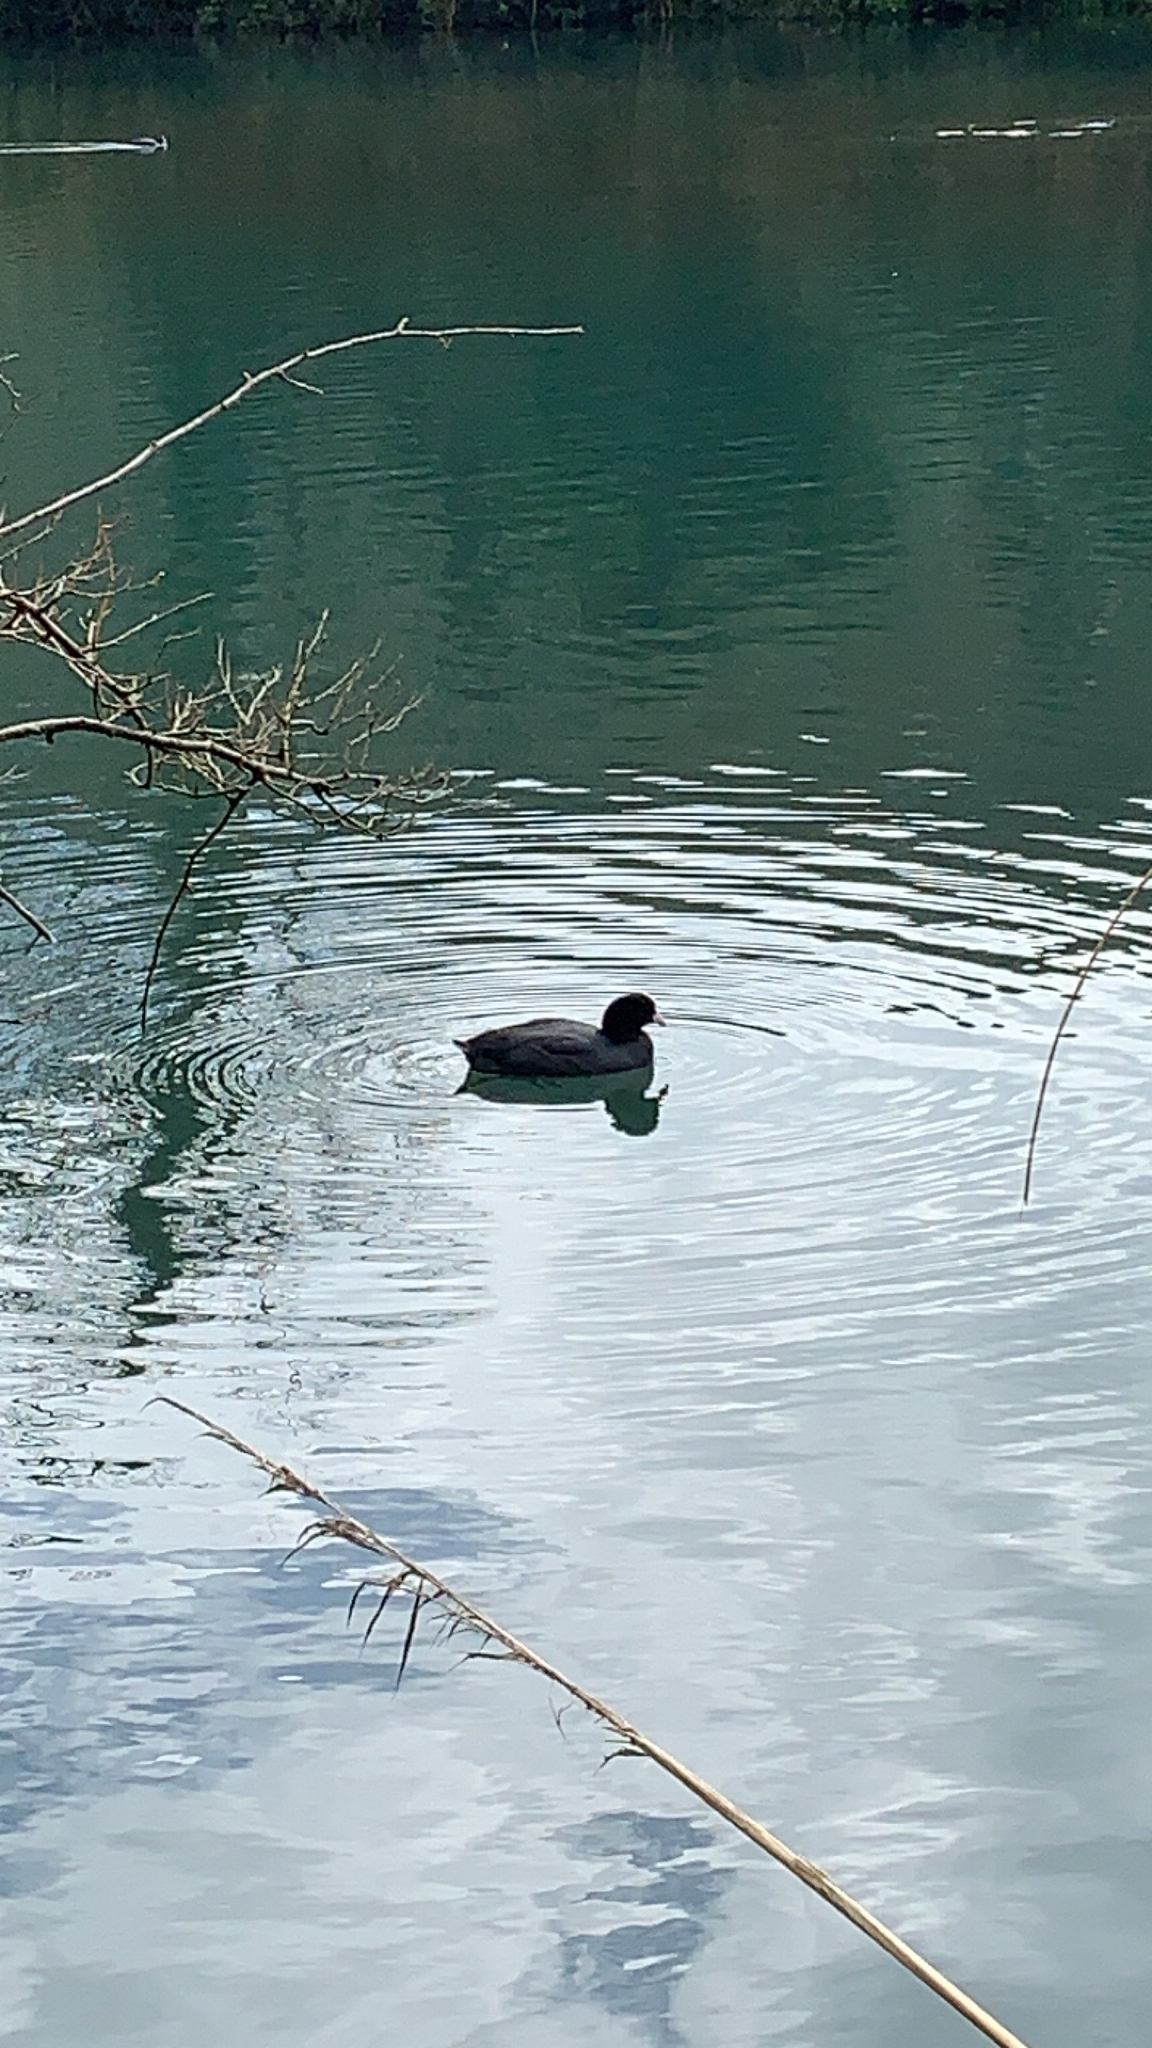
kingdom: Animalia
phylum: Chordata
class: Aves
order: Gruiformes
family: Rallidae
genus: Fulica
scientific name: Fulica atra
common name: Eurasian coot
